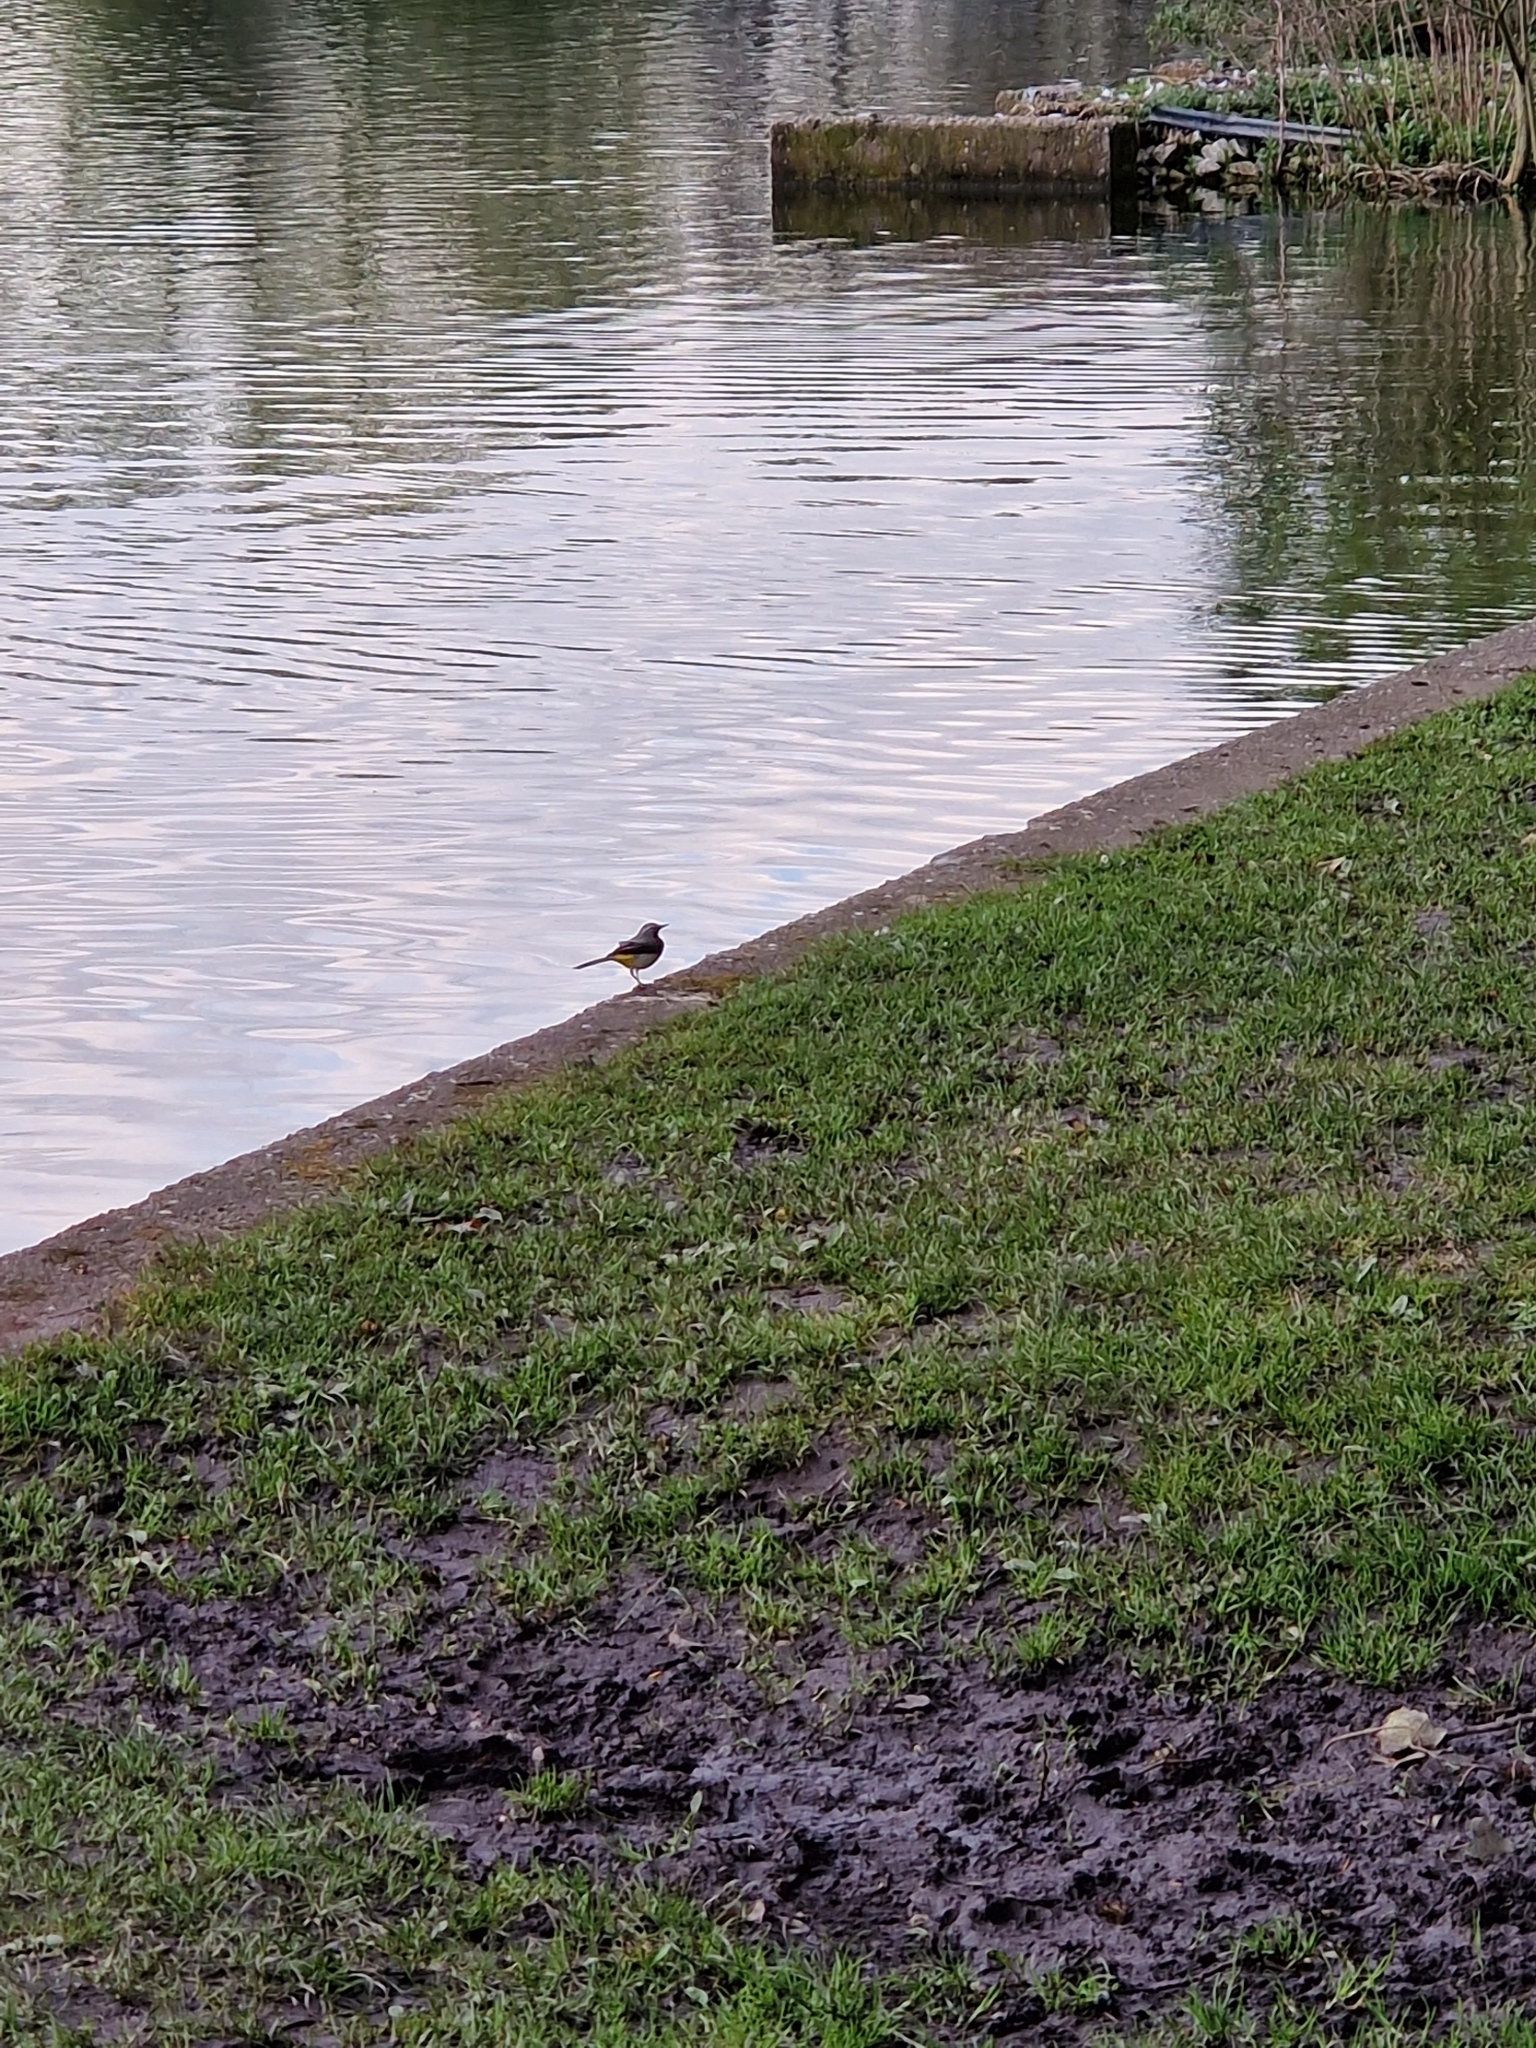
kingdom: Animalia
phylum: Chordata
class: Aves
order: Passeriformes
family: Motacillidae
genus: Motacilla
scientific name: Motacilla cinerea
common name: Grey wagtail
